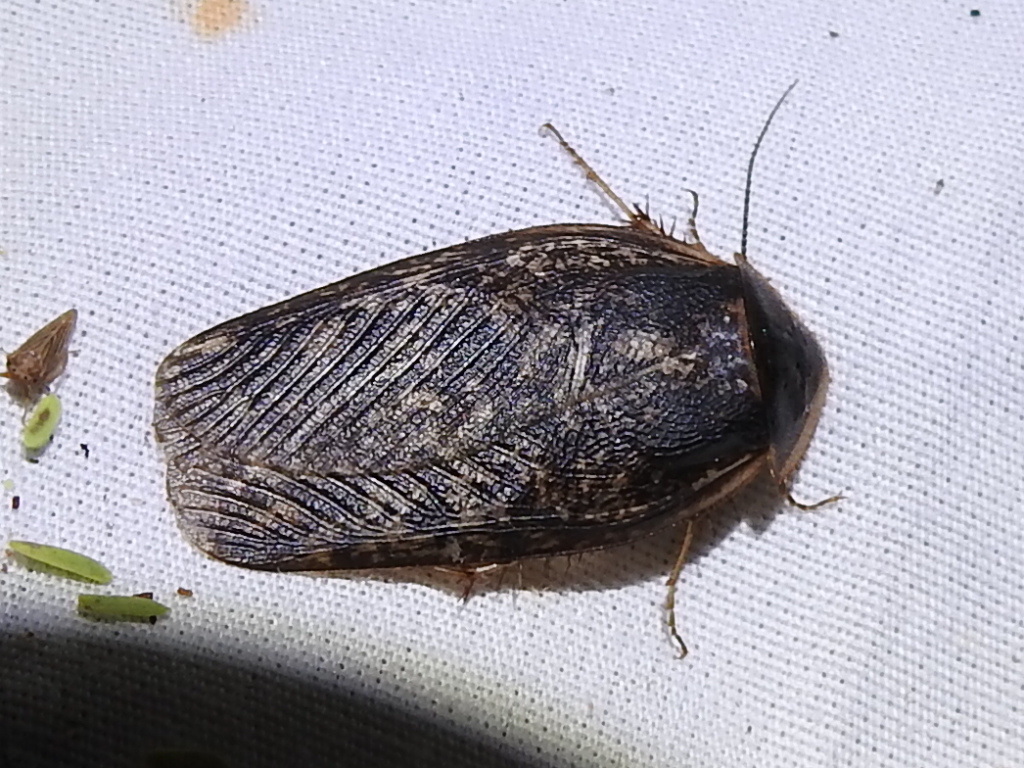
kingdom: Animalia
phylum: Arthropoda
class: Insecta
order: Blattodea
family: Corydiidae
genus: Arenivaga
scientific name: Arenivaga bolliana
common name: Boll's sand cockroach
